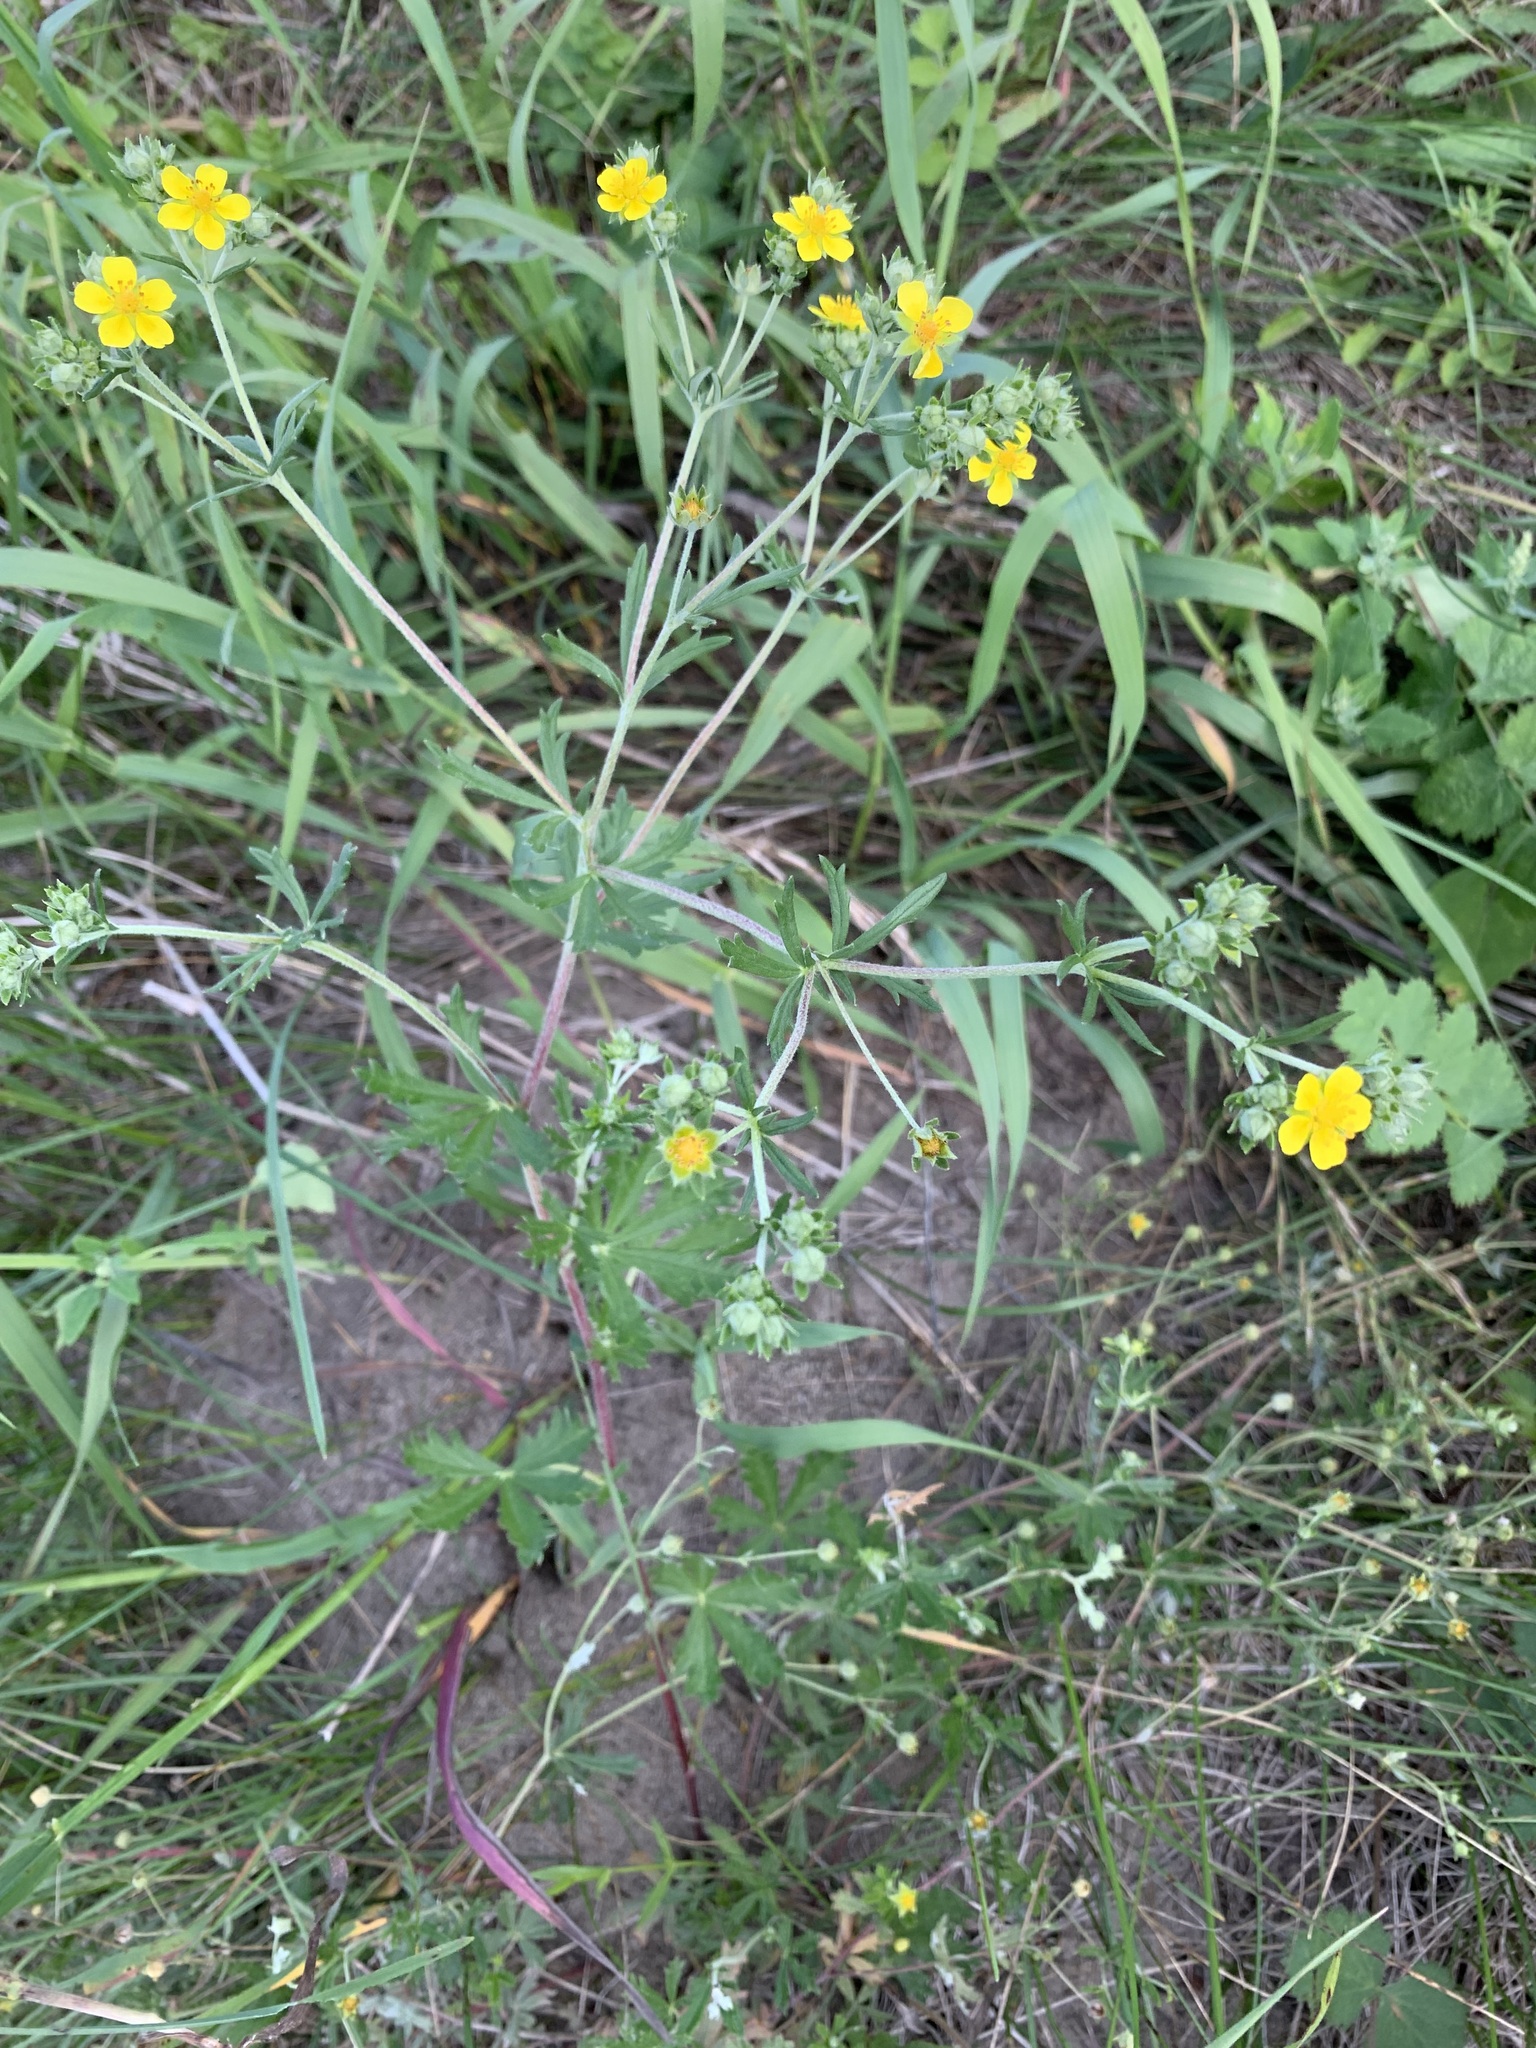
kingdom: Plantae
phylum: Tracheophyta
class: Magnoliopsida
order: Rosales
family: Rosaceae
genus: Potentilla
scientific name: Potentilla argentea
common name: Hoary cinquefoil
